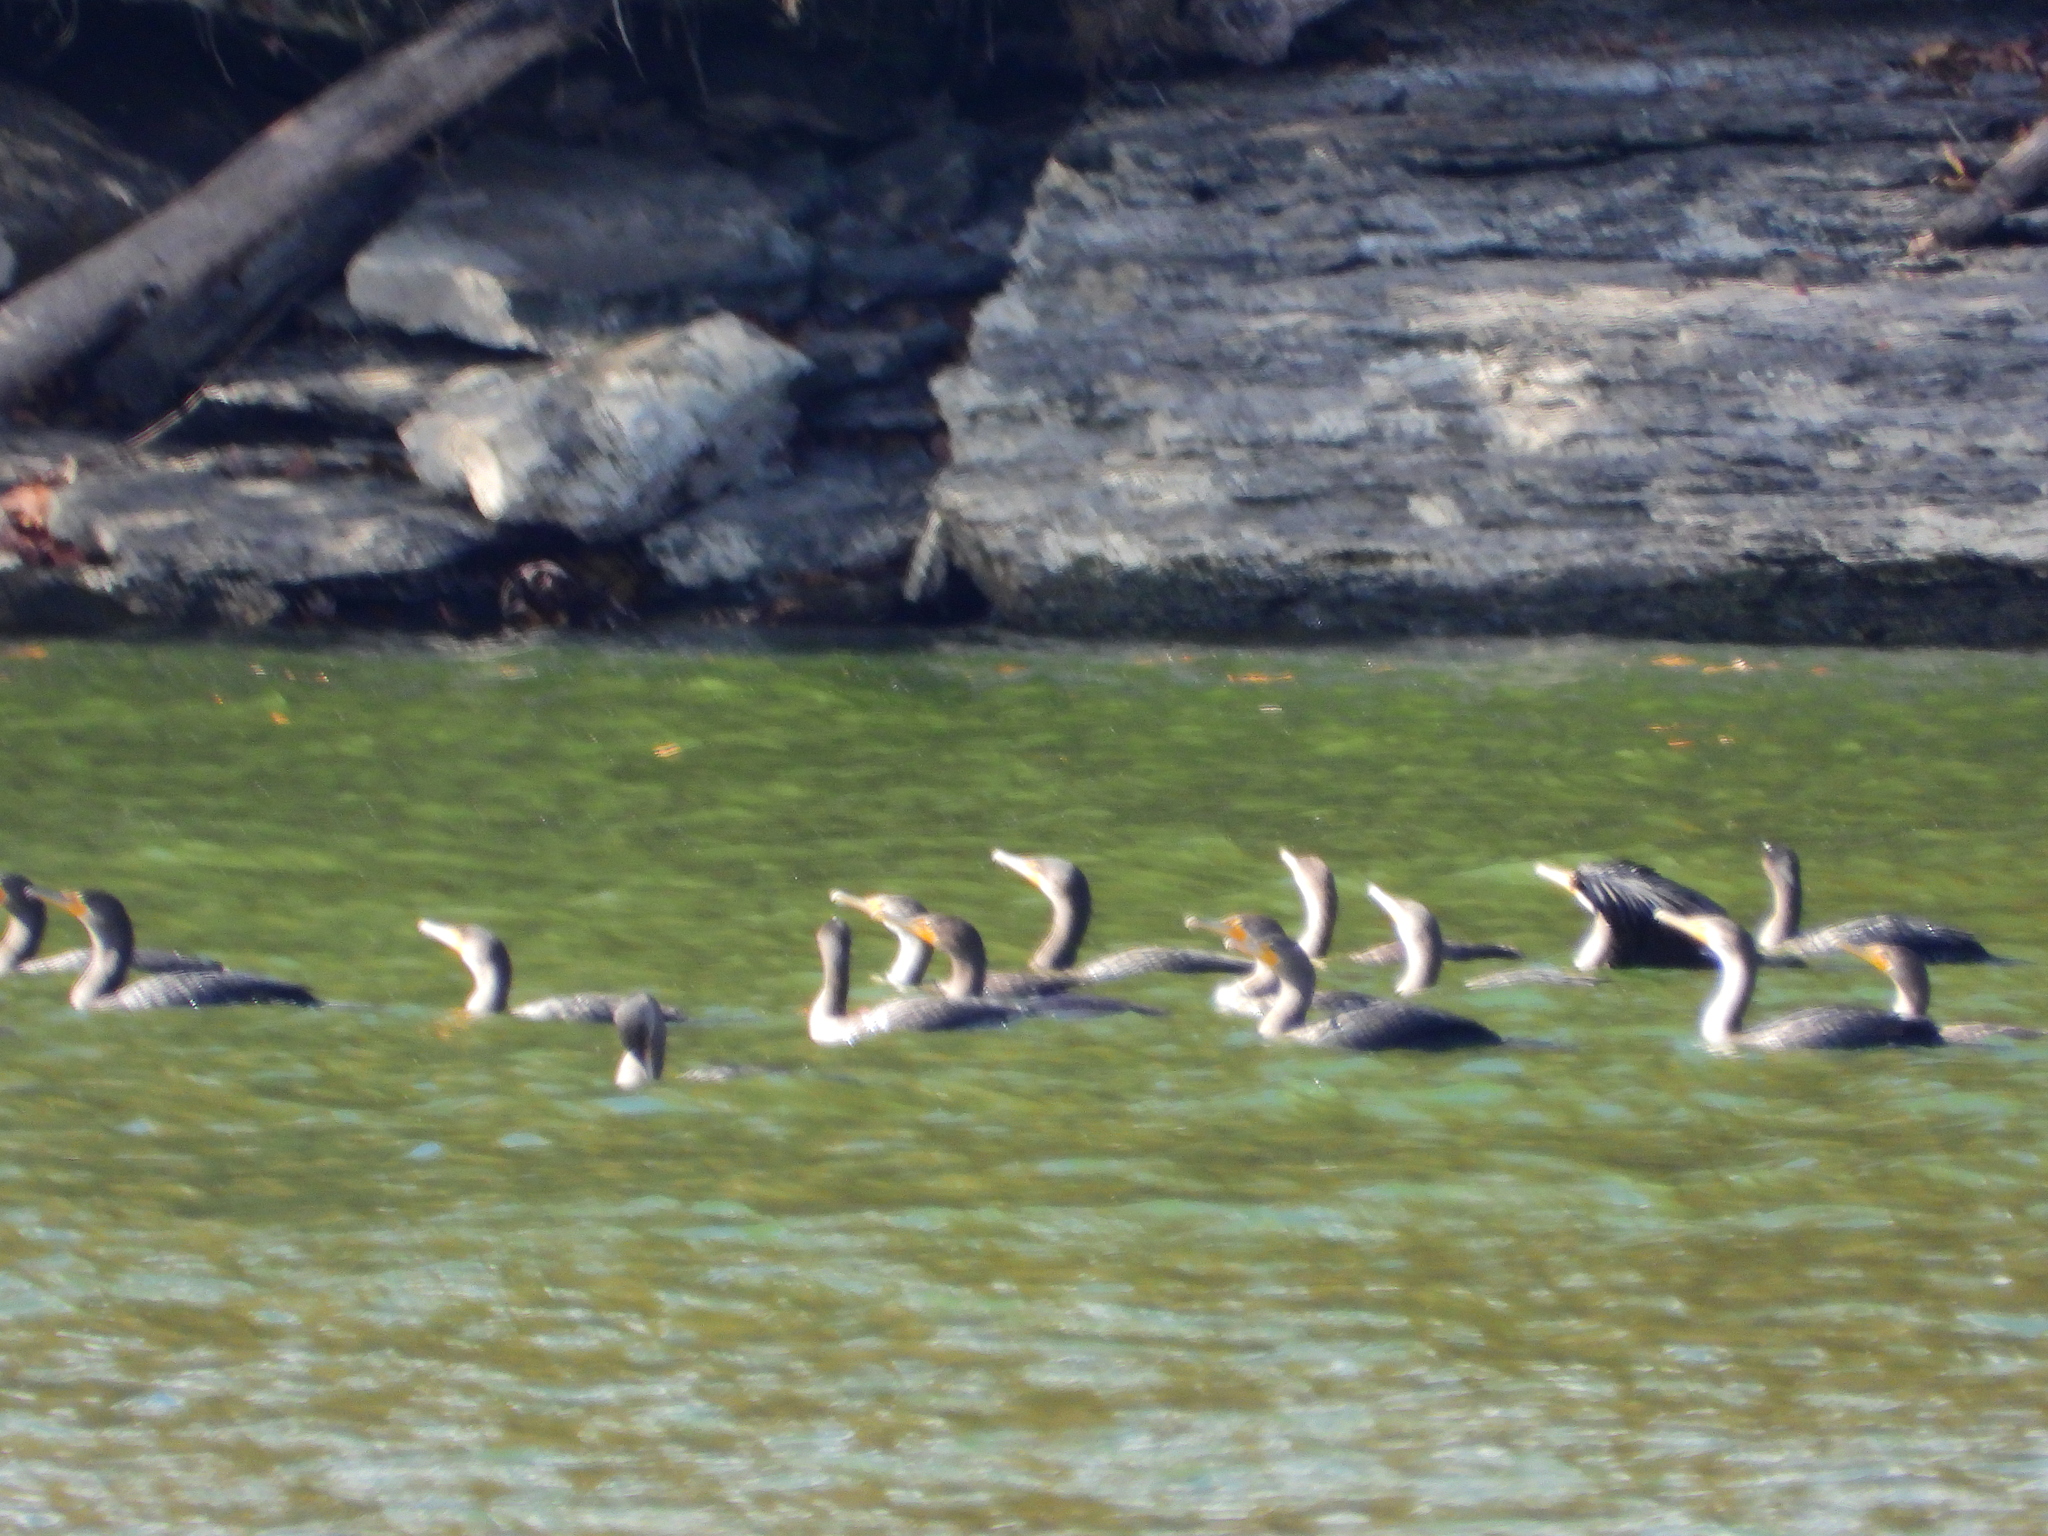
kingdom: Animalia
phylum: Chordata
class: Aves
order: Suliformes
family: Phalacrocoracidae
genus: Phalacrocorax
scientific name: Phalacrocorax auritus
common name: Double-crested cormorant
